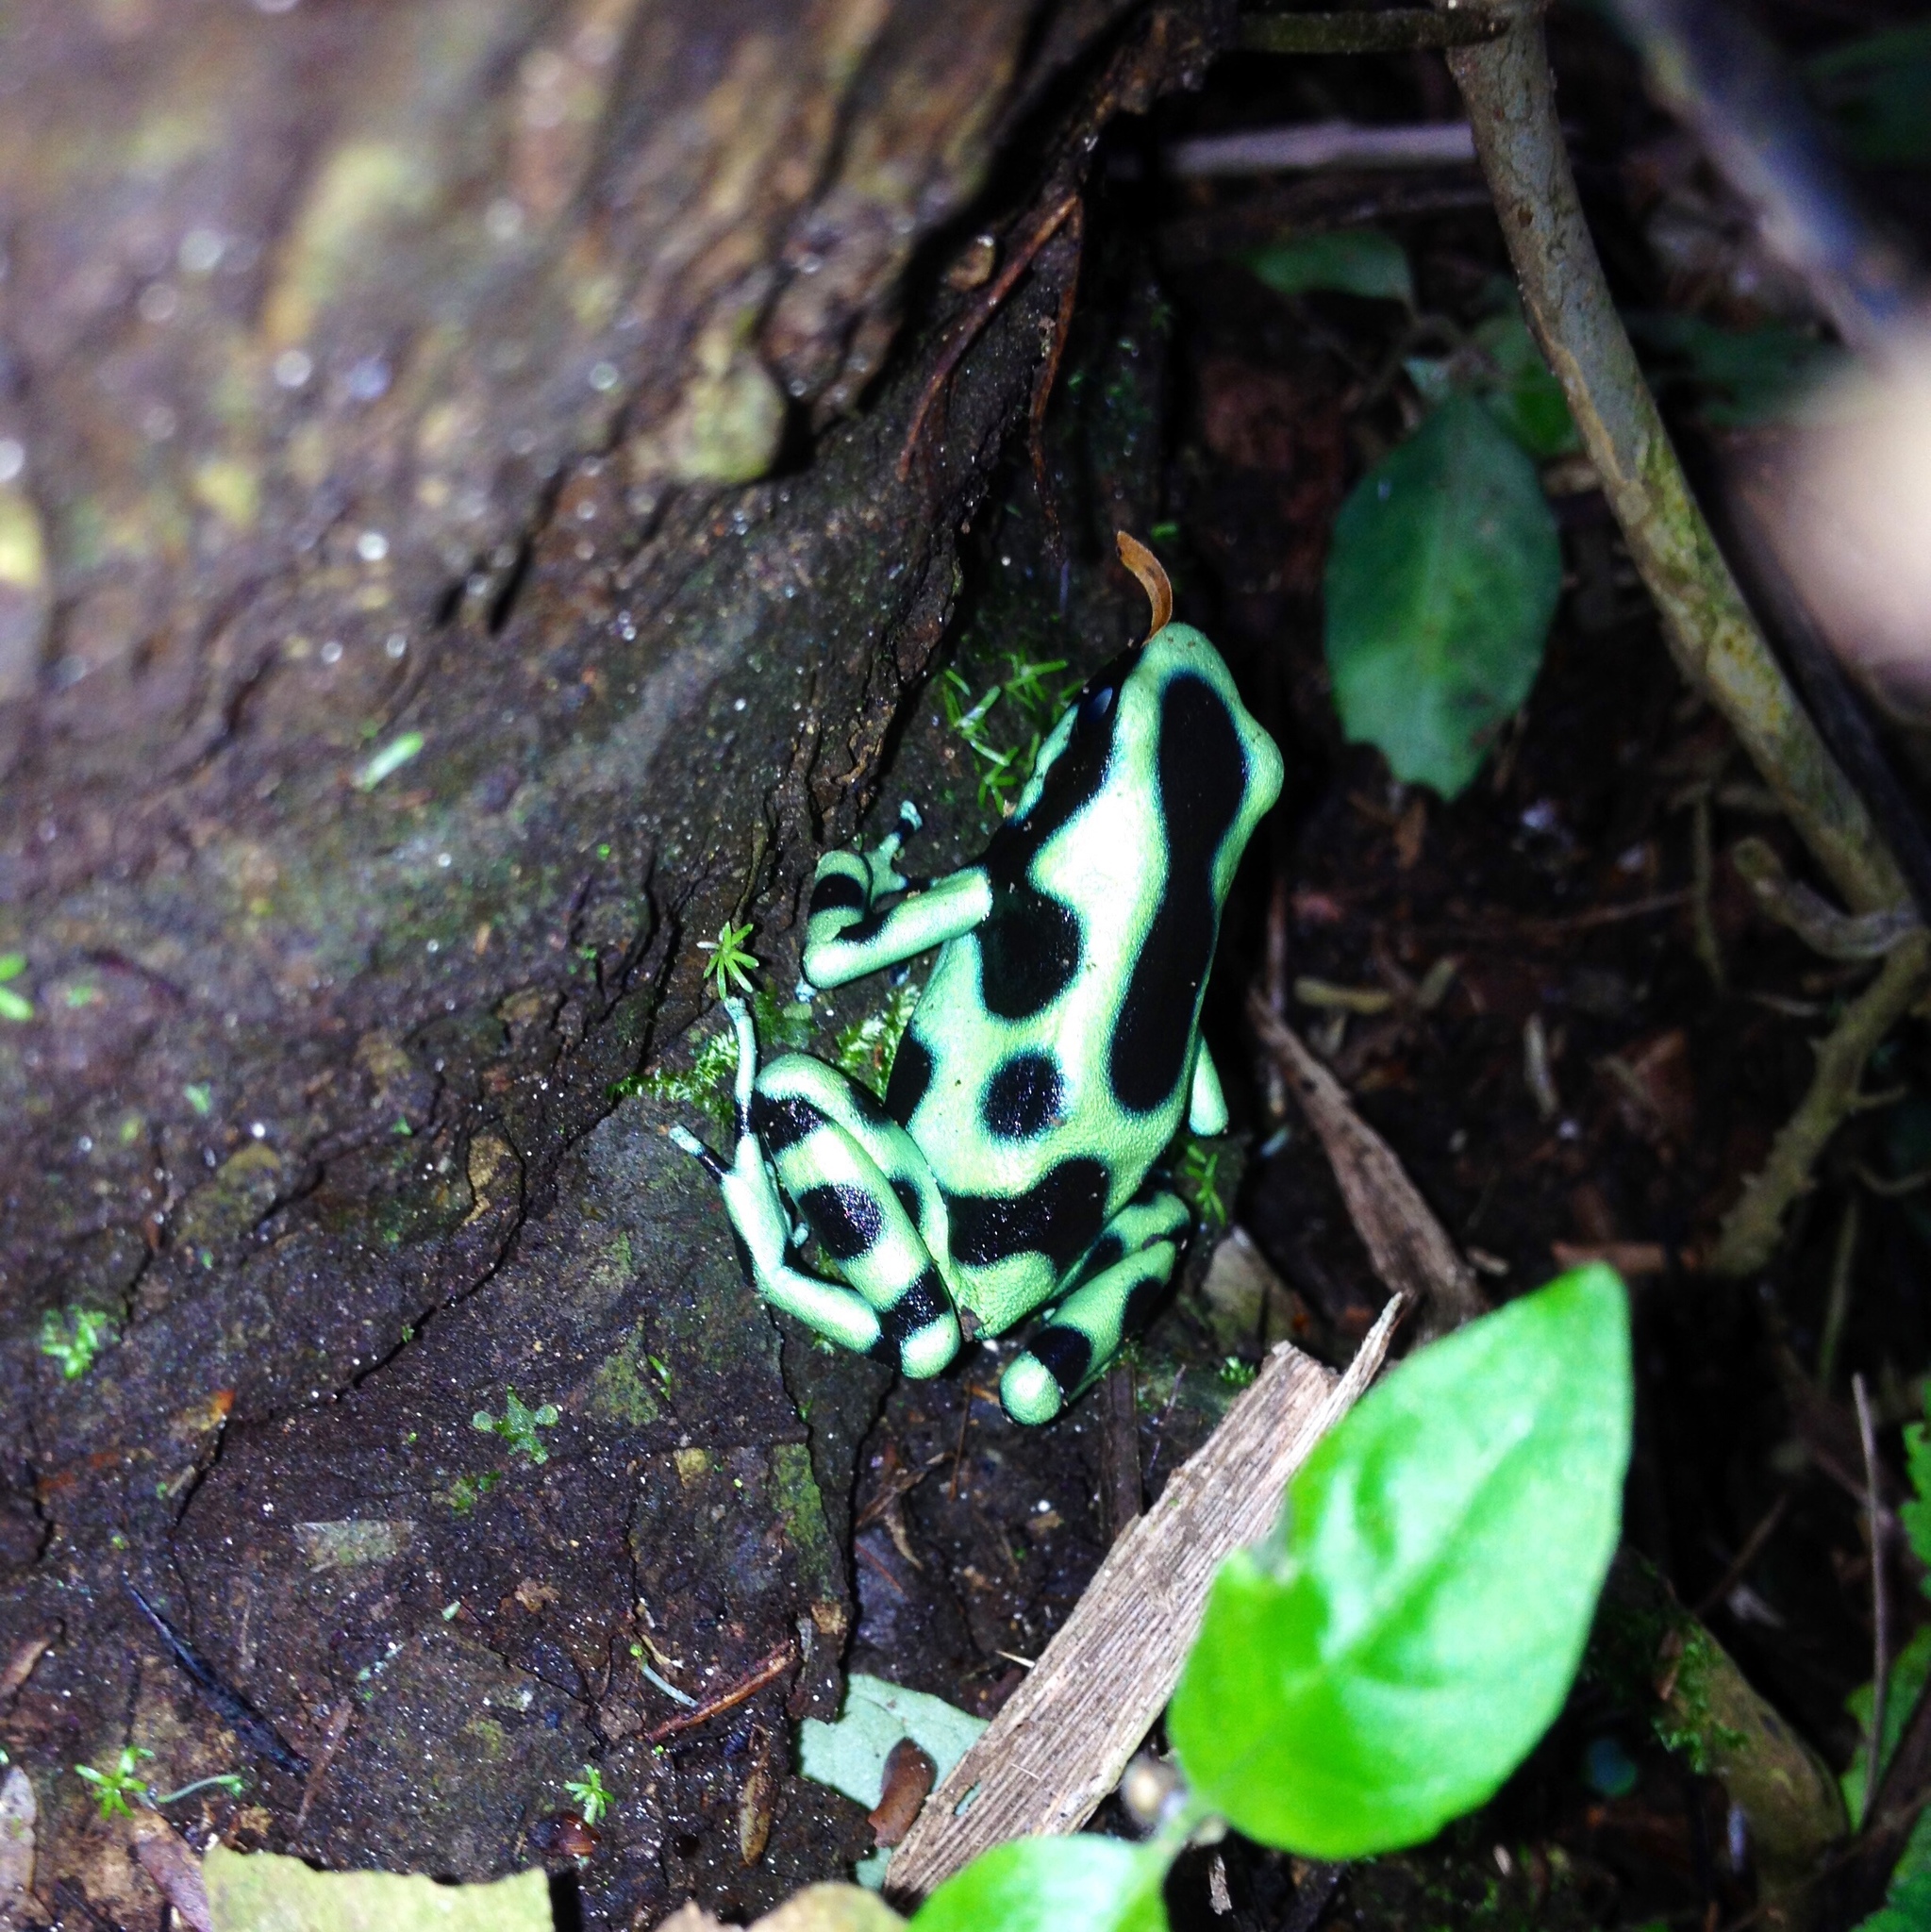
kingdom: Animalia
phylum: Chordata
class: Amphibia
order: Anura
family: Dendrobatidae
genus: Dendrobates
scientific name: Dendrobates auratus
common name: Green and black poison dart frog
